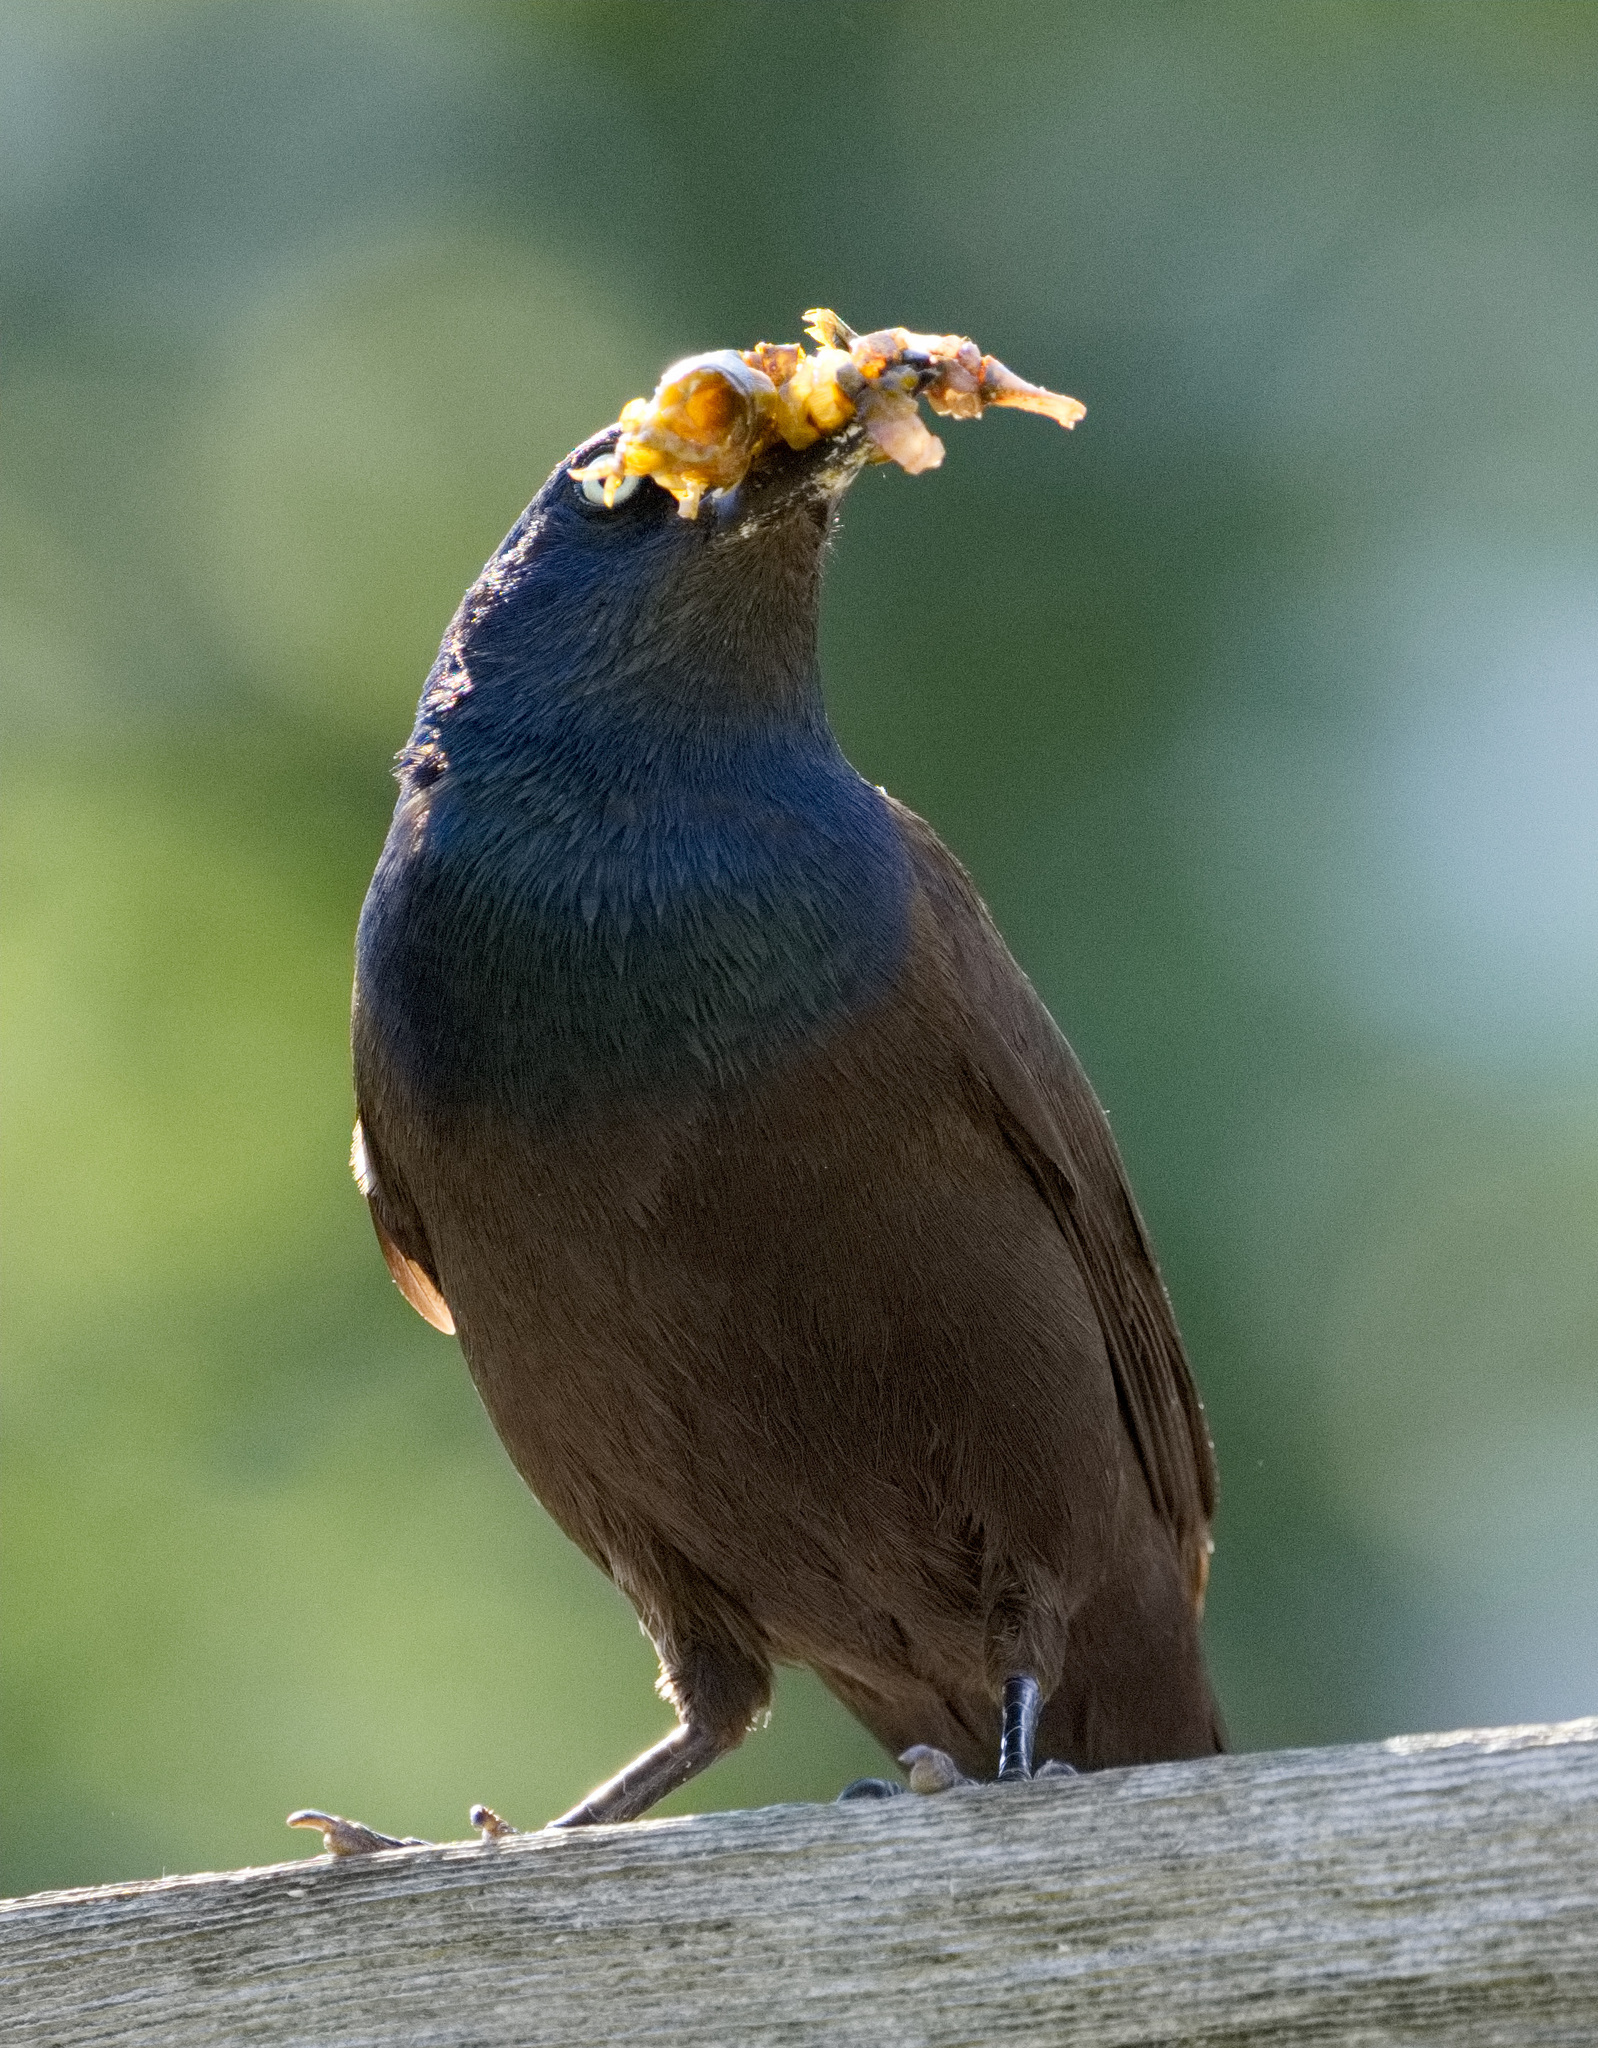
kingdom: Animalia
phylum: Chordata
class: Aves
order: Passeriformes
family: Icteridae
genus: Quiscalus
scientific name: Quiscalus quiscula
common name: Common grackle
